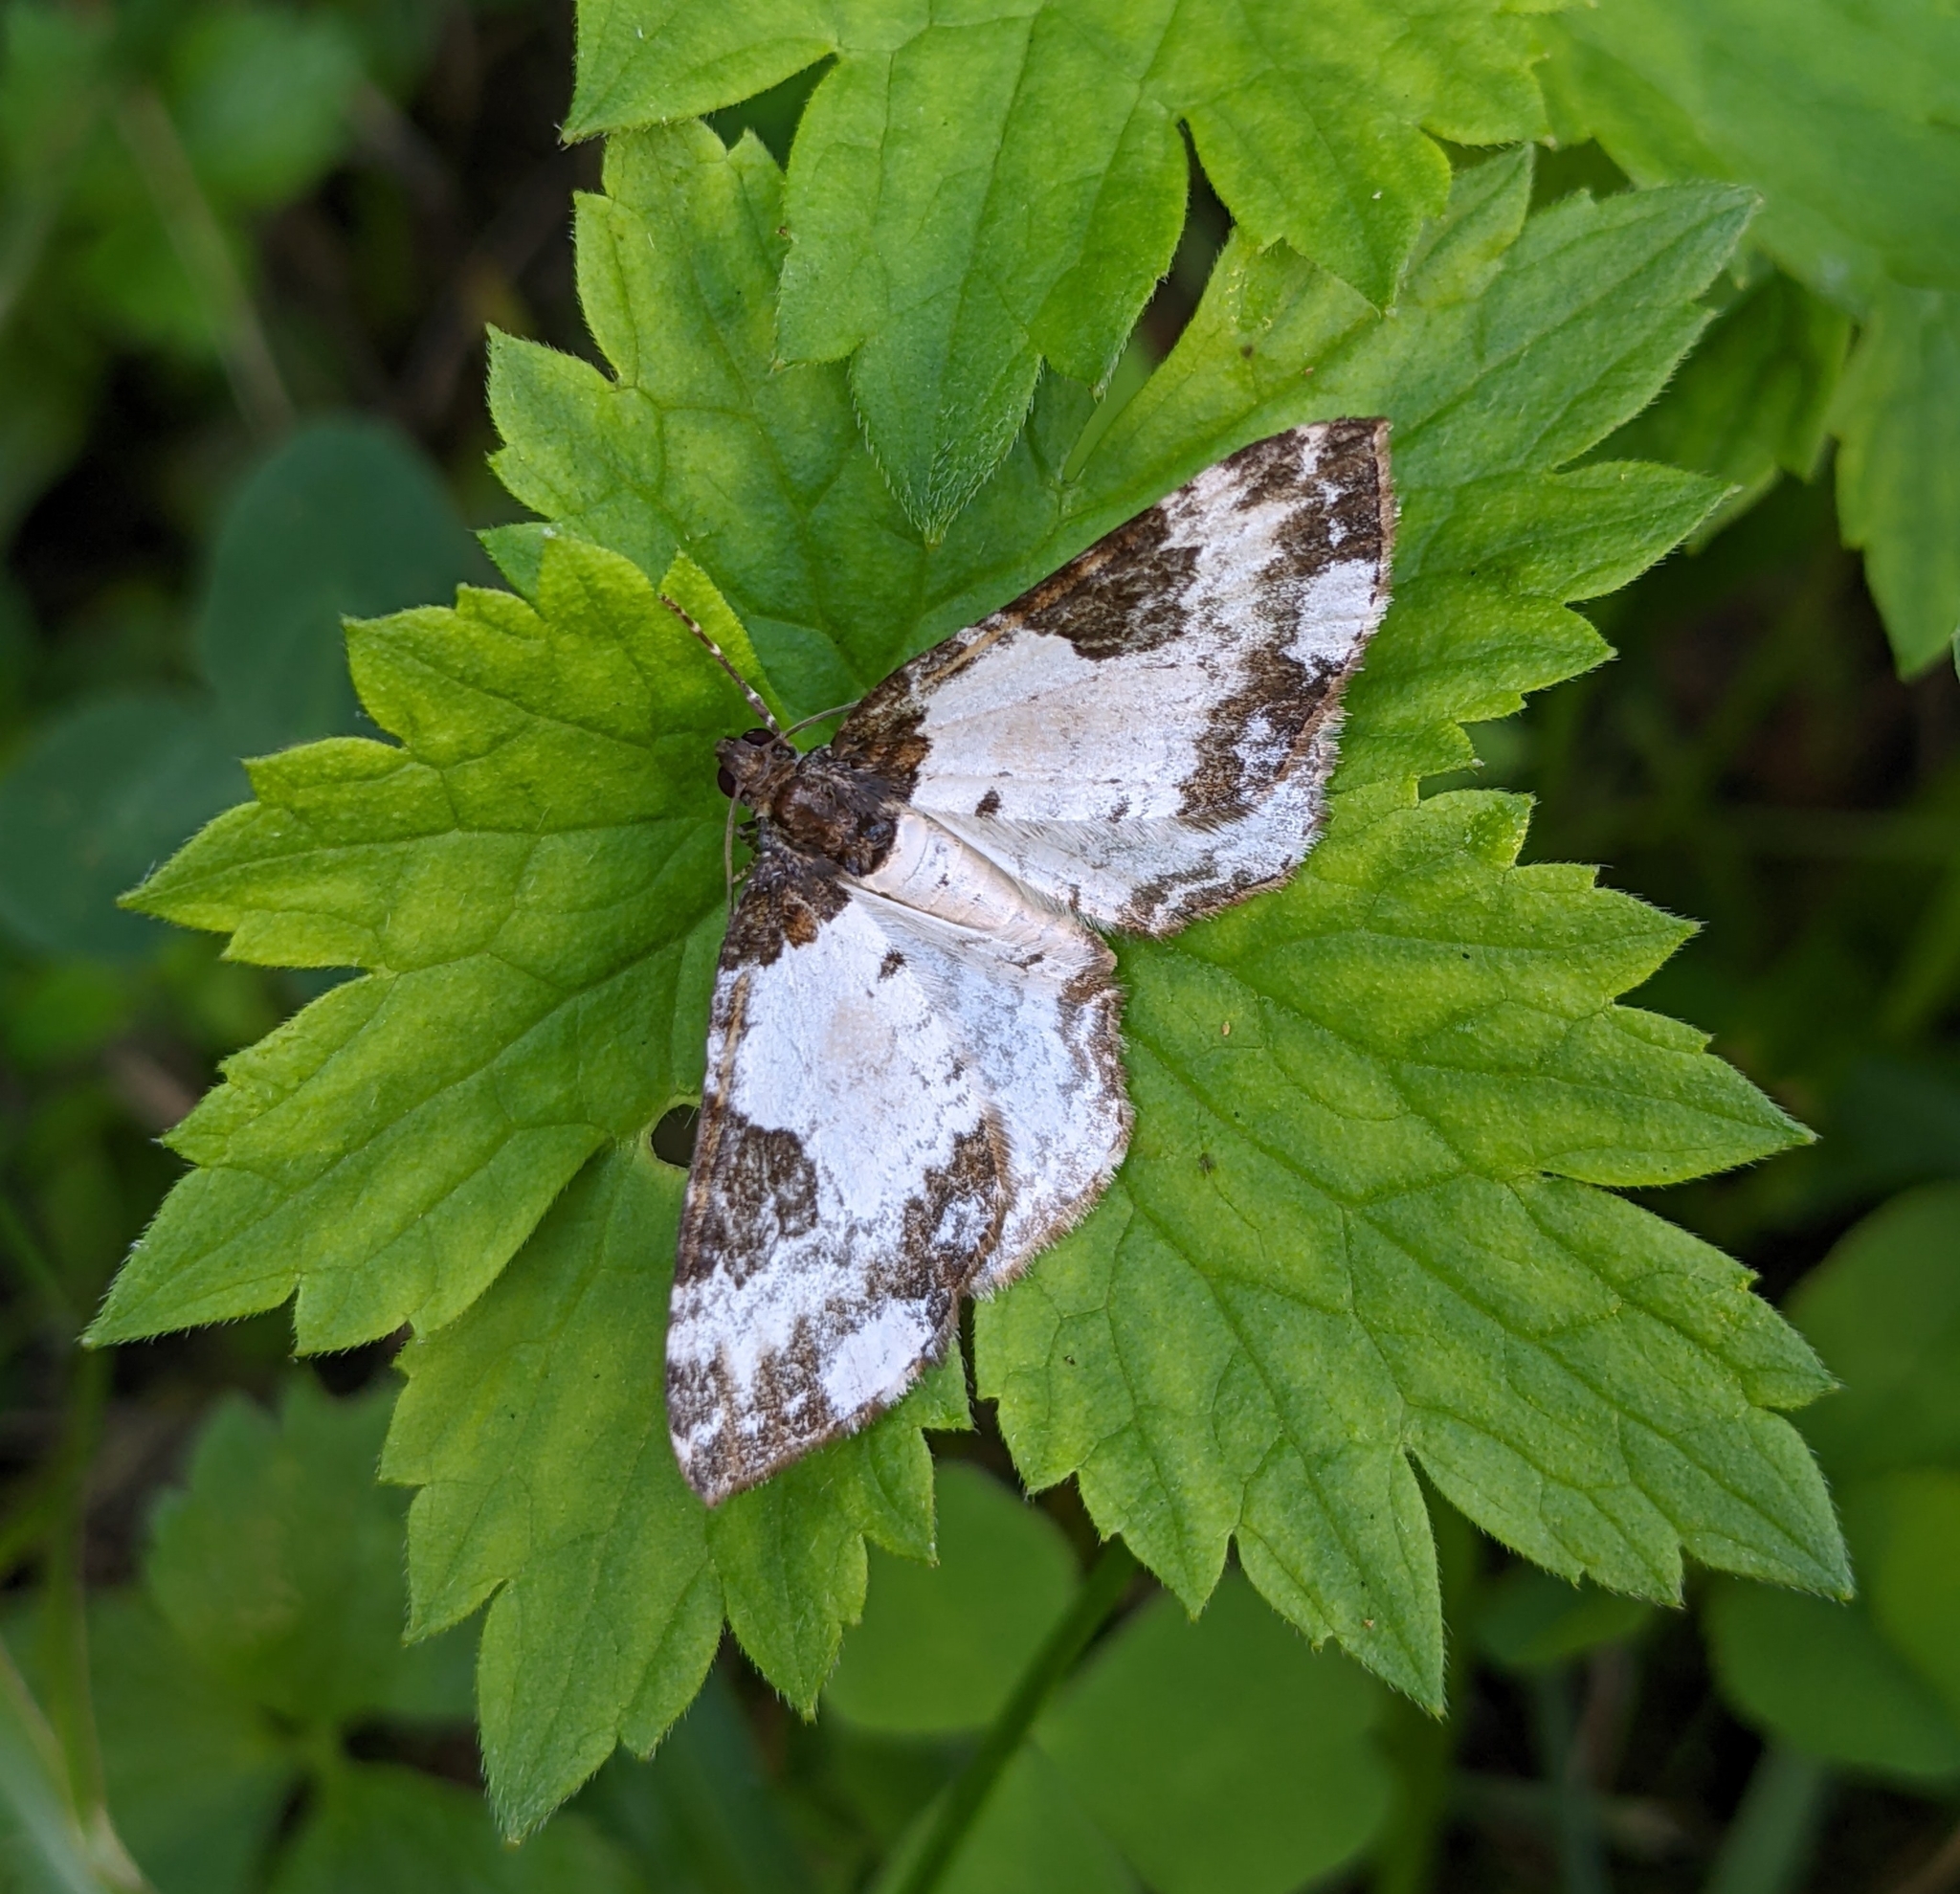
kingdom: Animalia
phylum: Arthropoda
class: Insecta
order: Lepidoptera
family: Geometridae
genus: Melanthia
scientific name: Melanthia procellata
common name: Pretty chalk carpet
